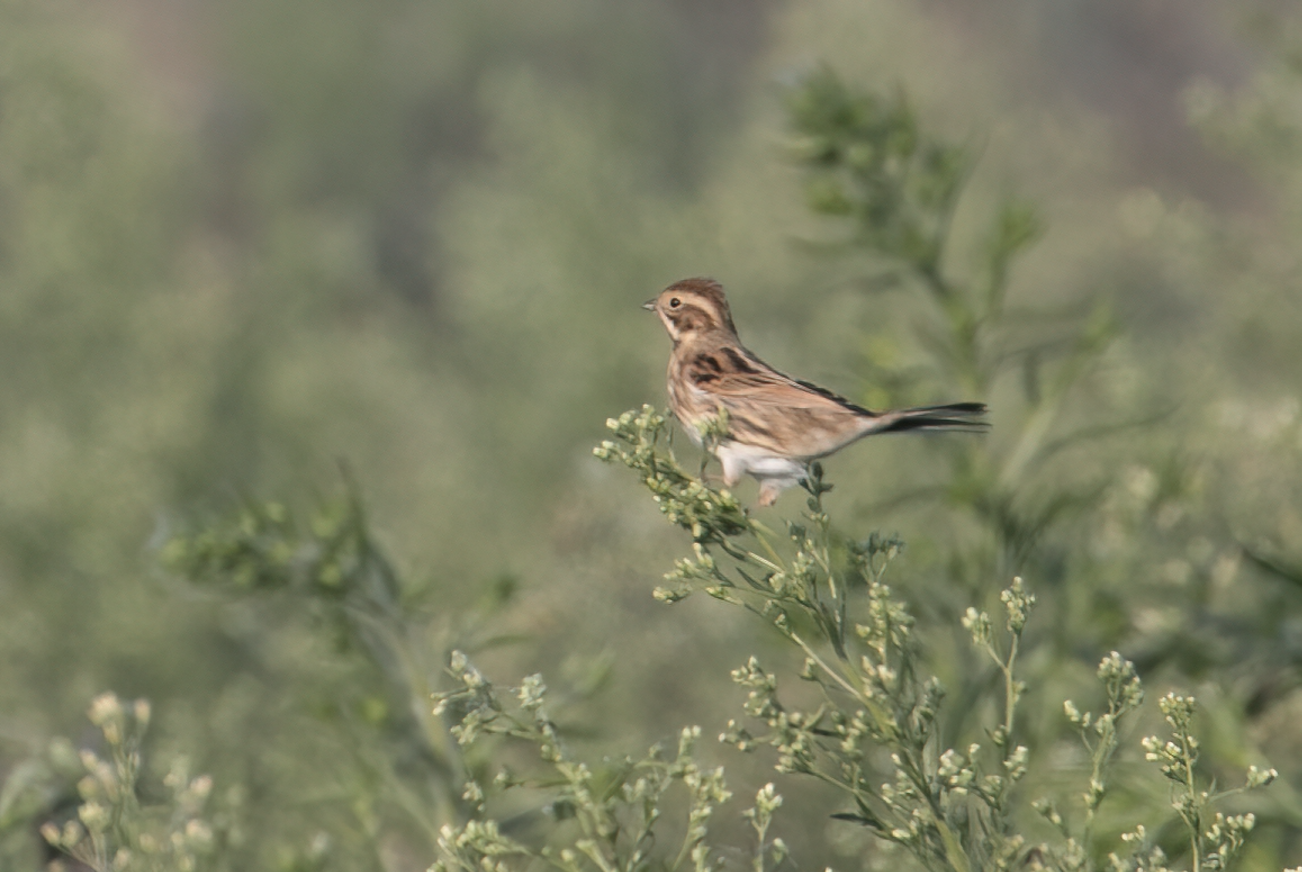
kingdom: Animalia
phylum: Chordata
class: Aves
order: Passeriformes
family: Emberizidae
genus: Emberiza
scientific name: Emberiza schoeniclus
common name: Reed bunting
